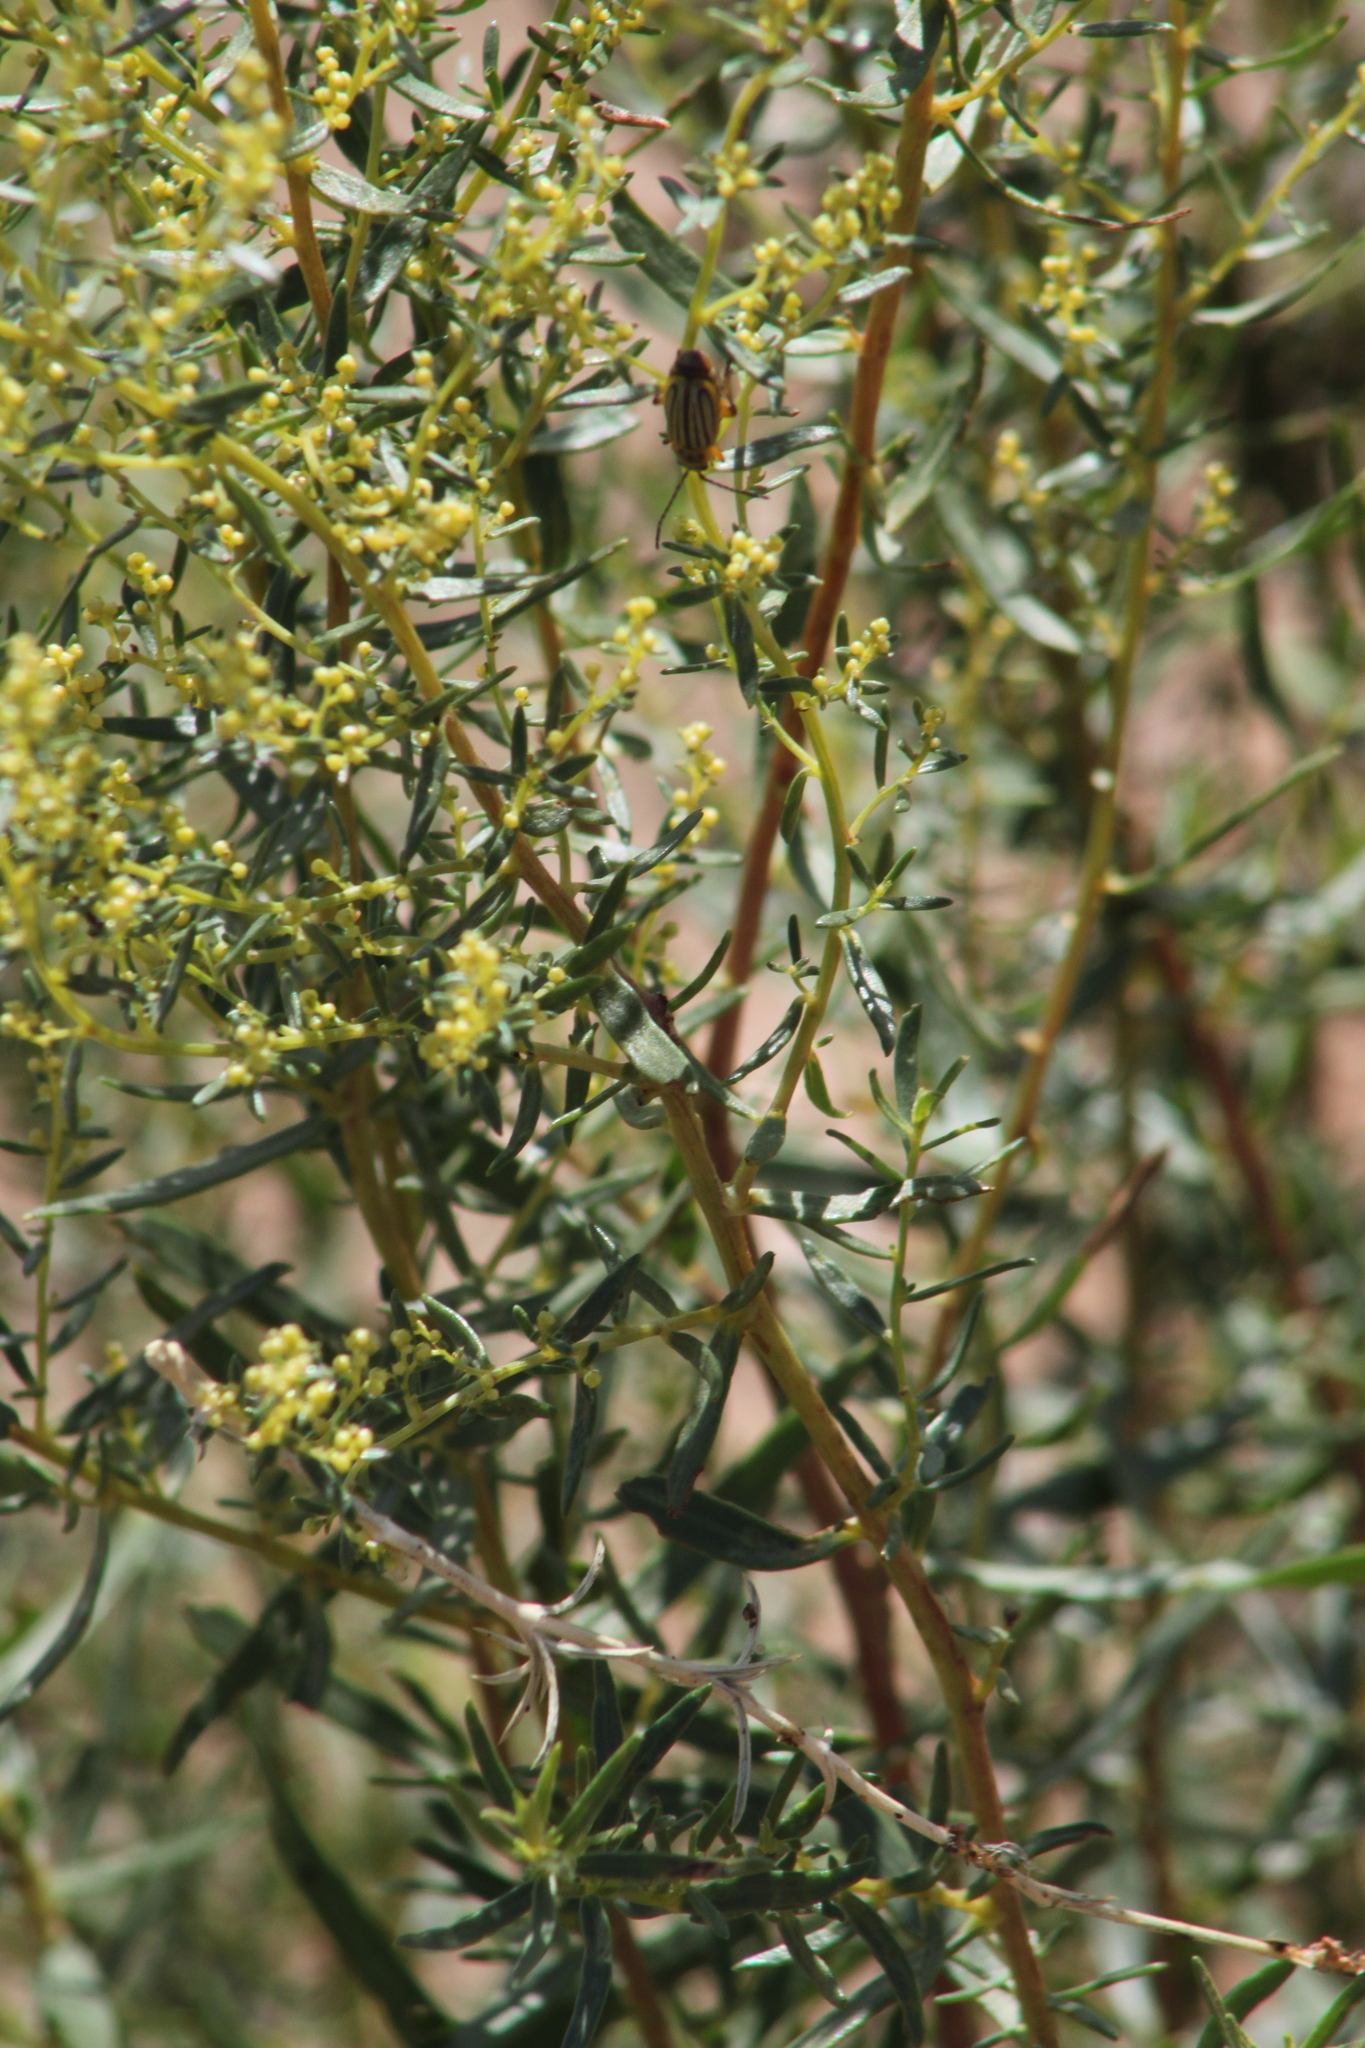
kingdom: Plantae
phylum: Tracheophyta
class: Magnoliopsida
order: Asterales
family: Asteraceae
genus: Artemisia
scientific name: Artemisia dracunculus
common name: Tarragon
